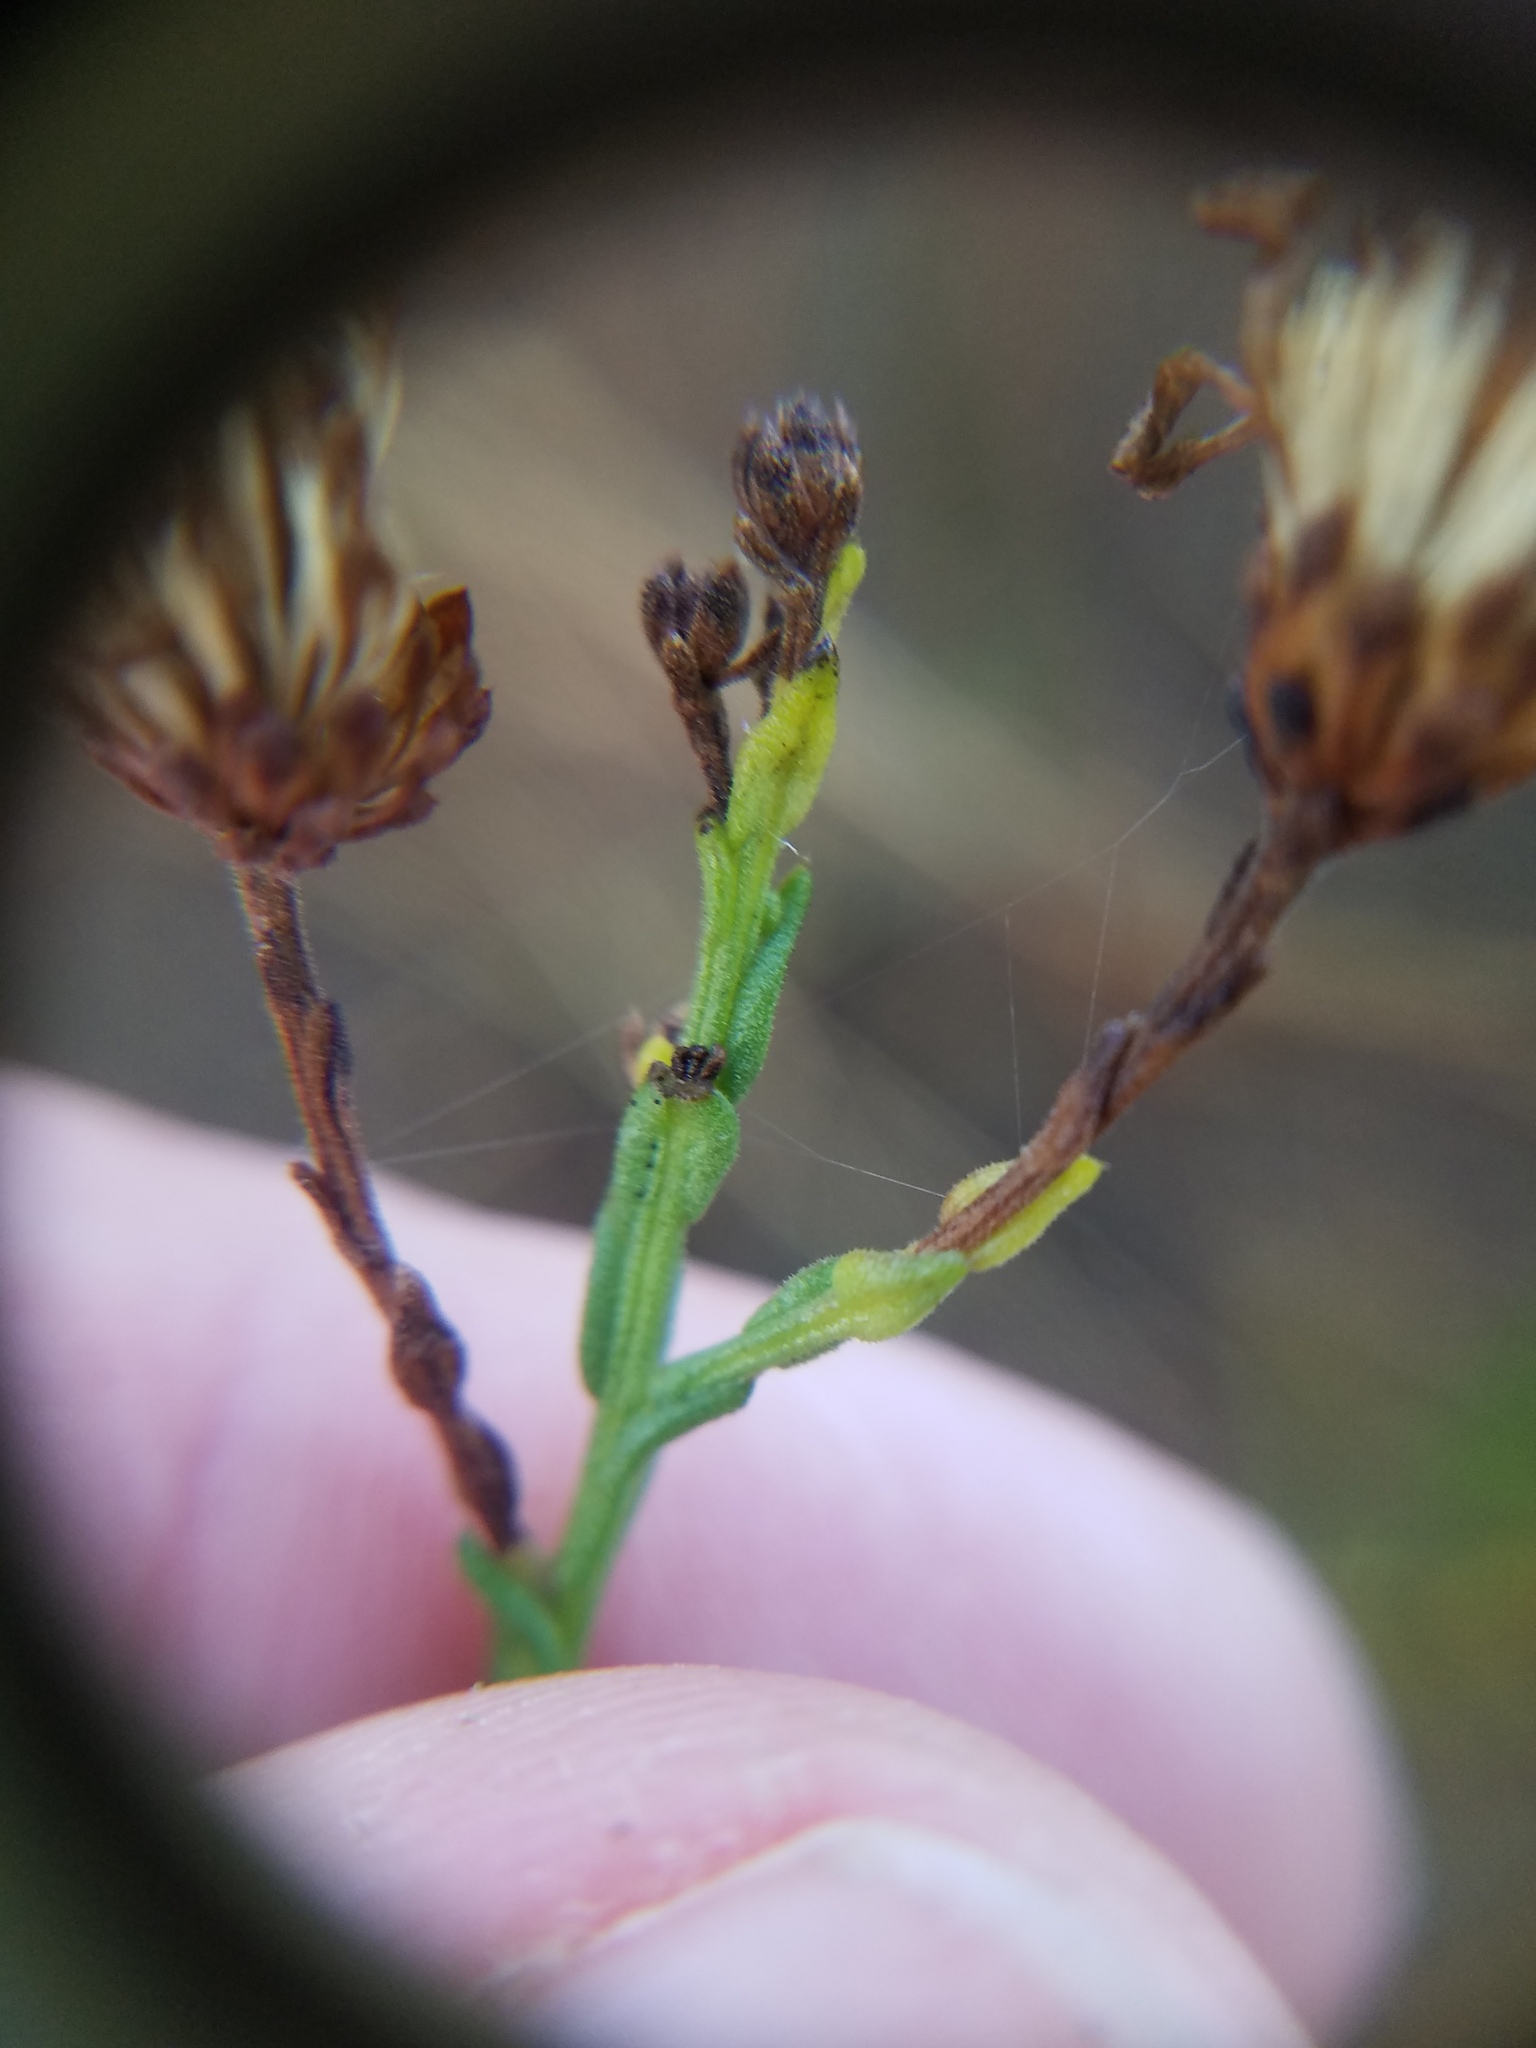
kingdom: Plantae
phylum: Tracheophyta
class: Magnoliopsida
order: Asterales
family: Asteraceae
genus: Symphyotrichum
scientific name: Symphyotrichum adnatum
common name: Scale-leaf aster
